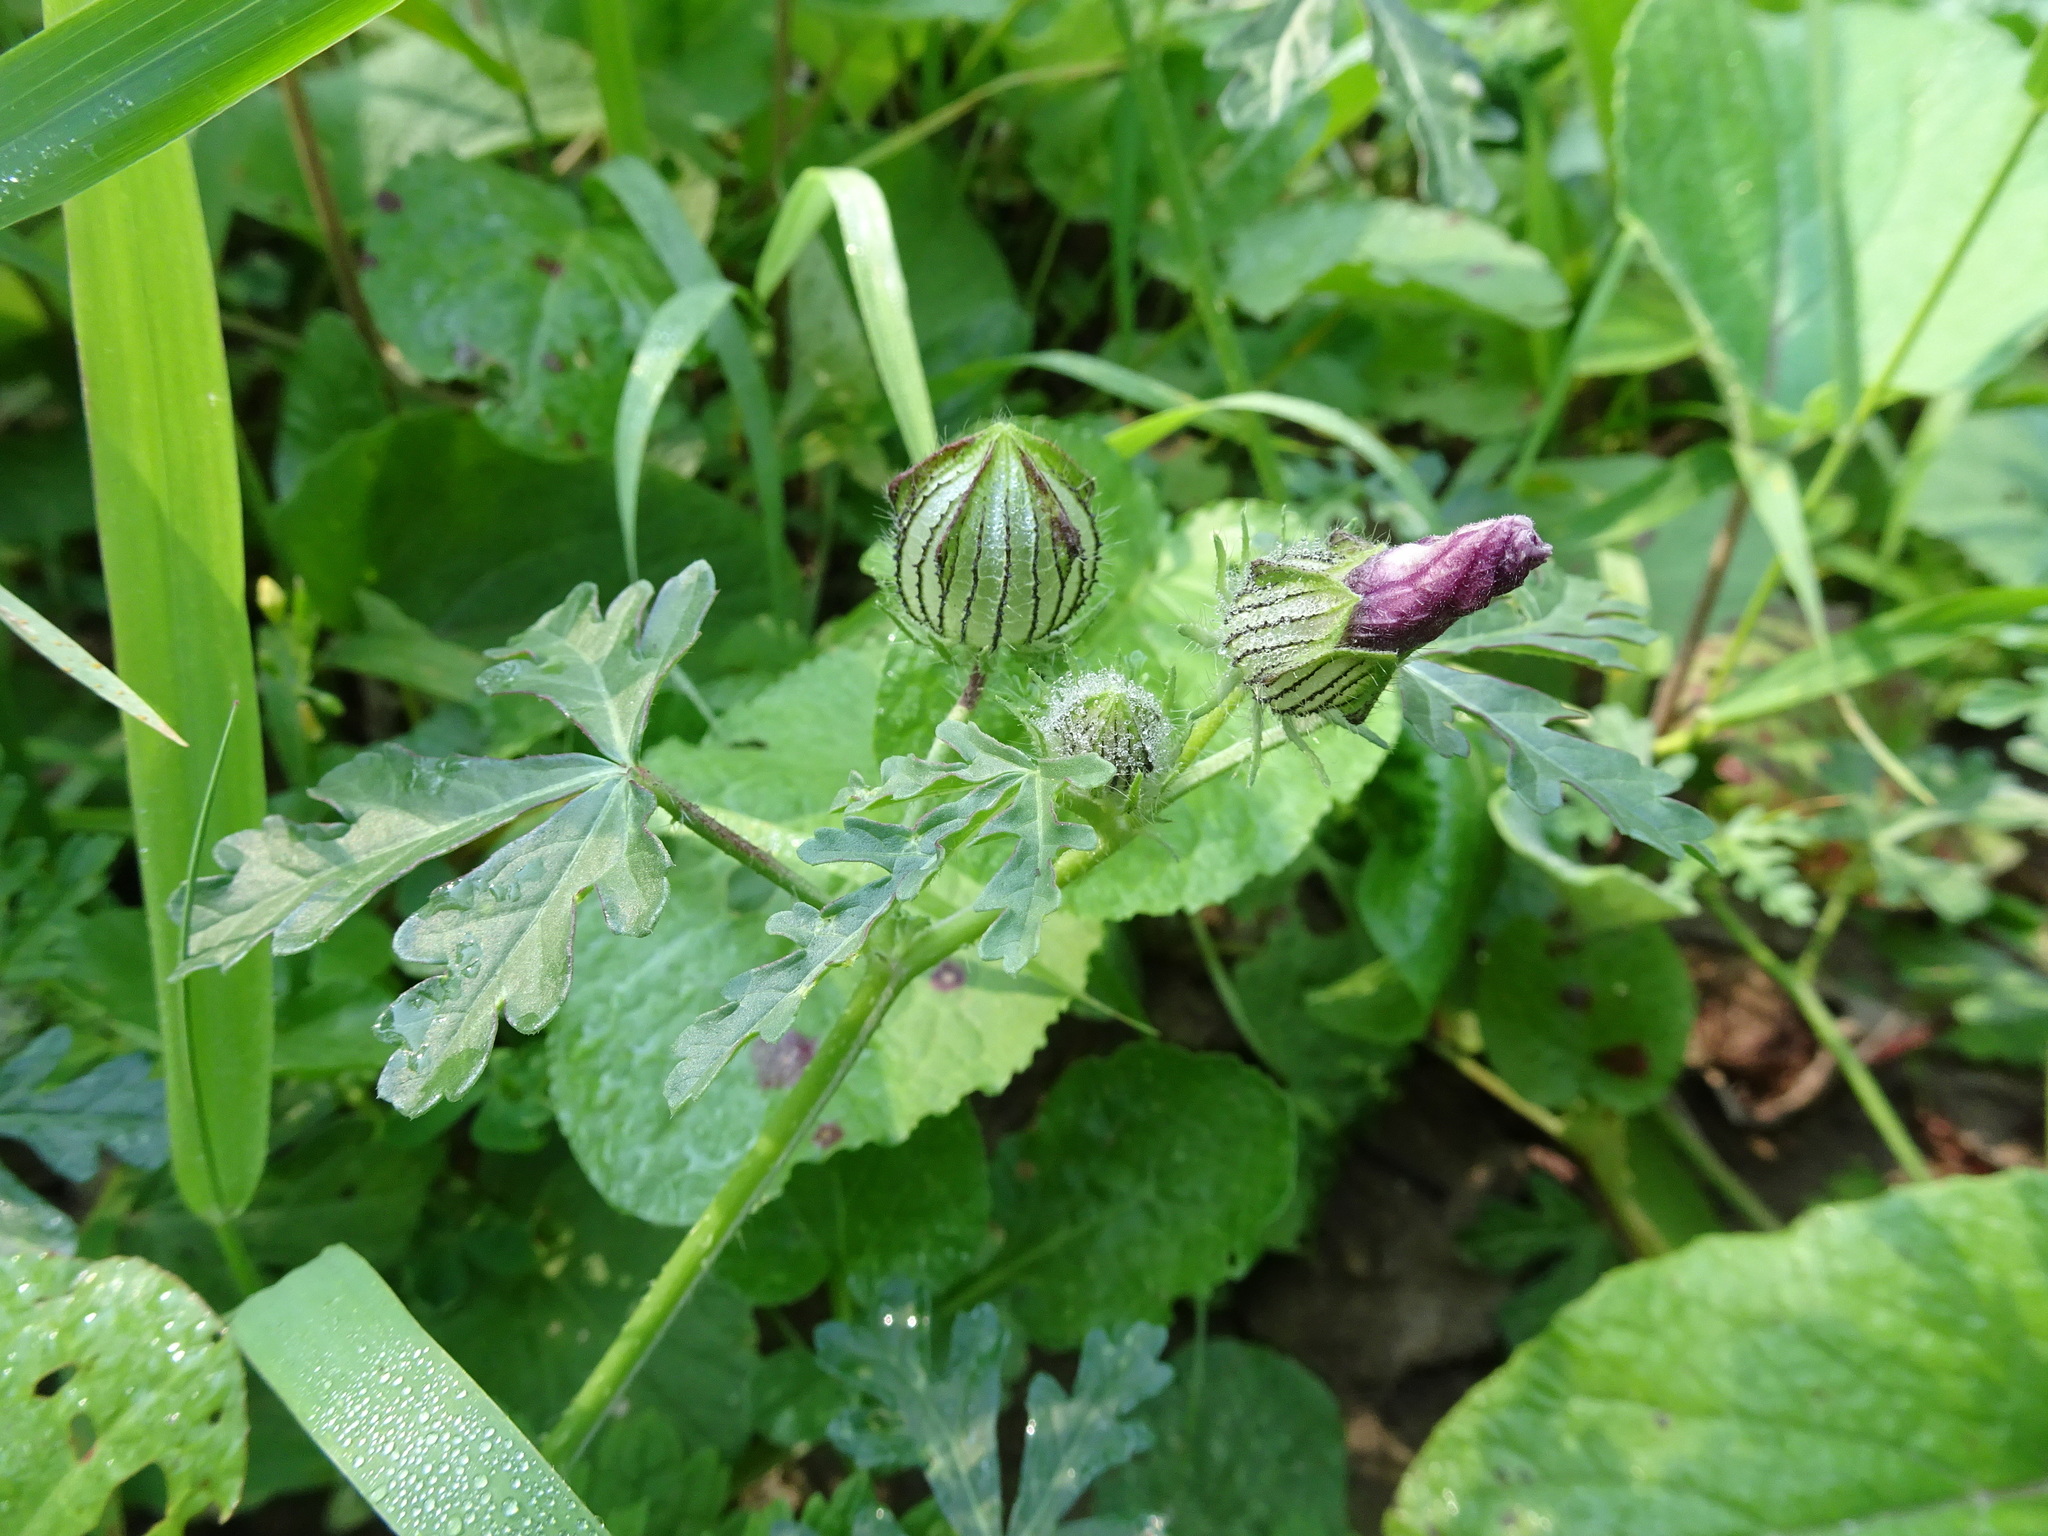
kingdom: Plantae
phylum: Tracheophyta
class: Magnoliopsida
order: Malvales
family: Malvaceae
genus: Hibiscus
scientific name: Hibiscus trionum
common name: Bladder ketmia
